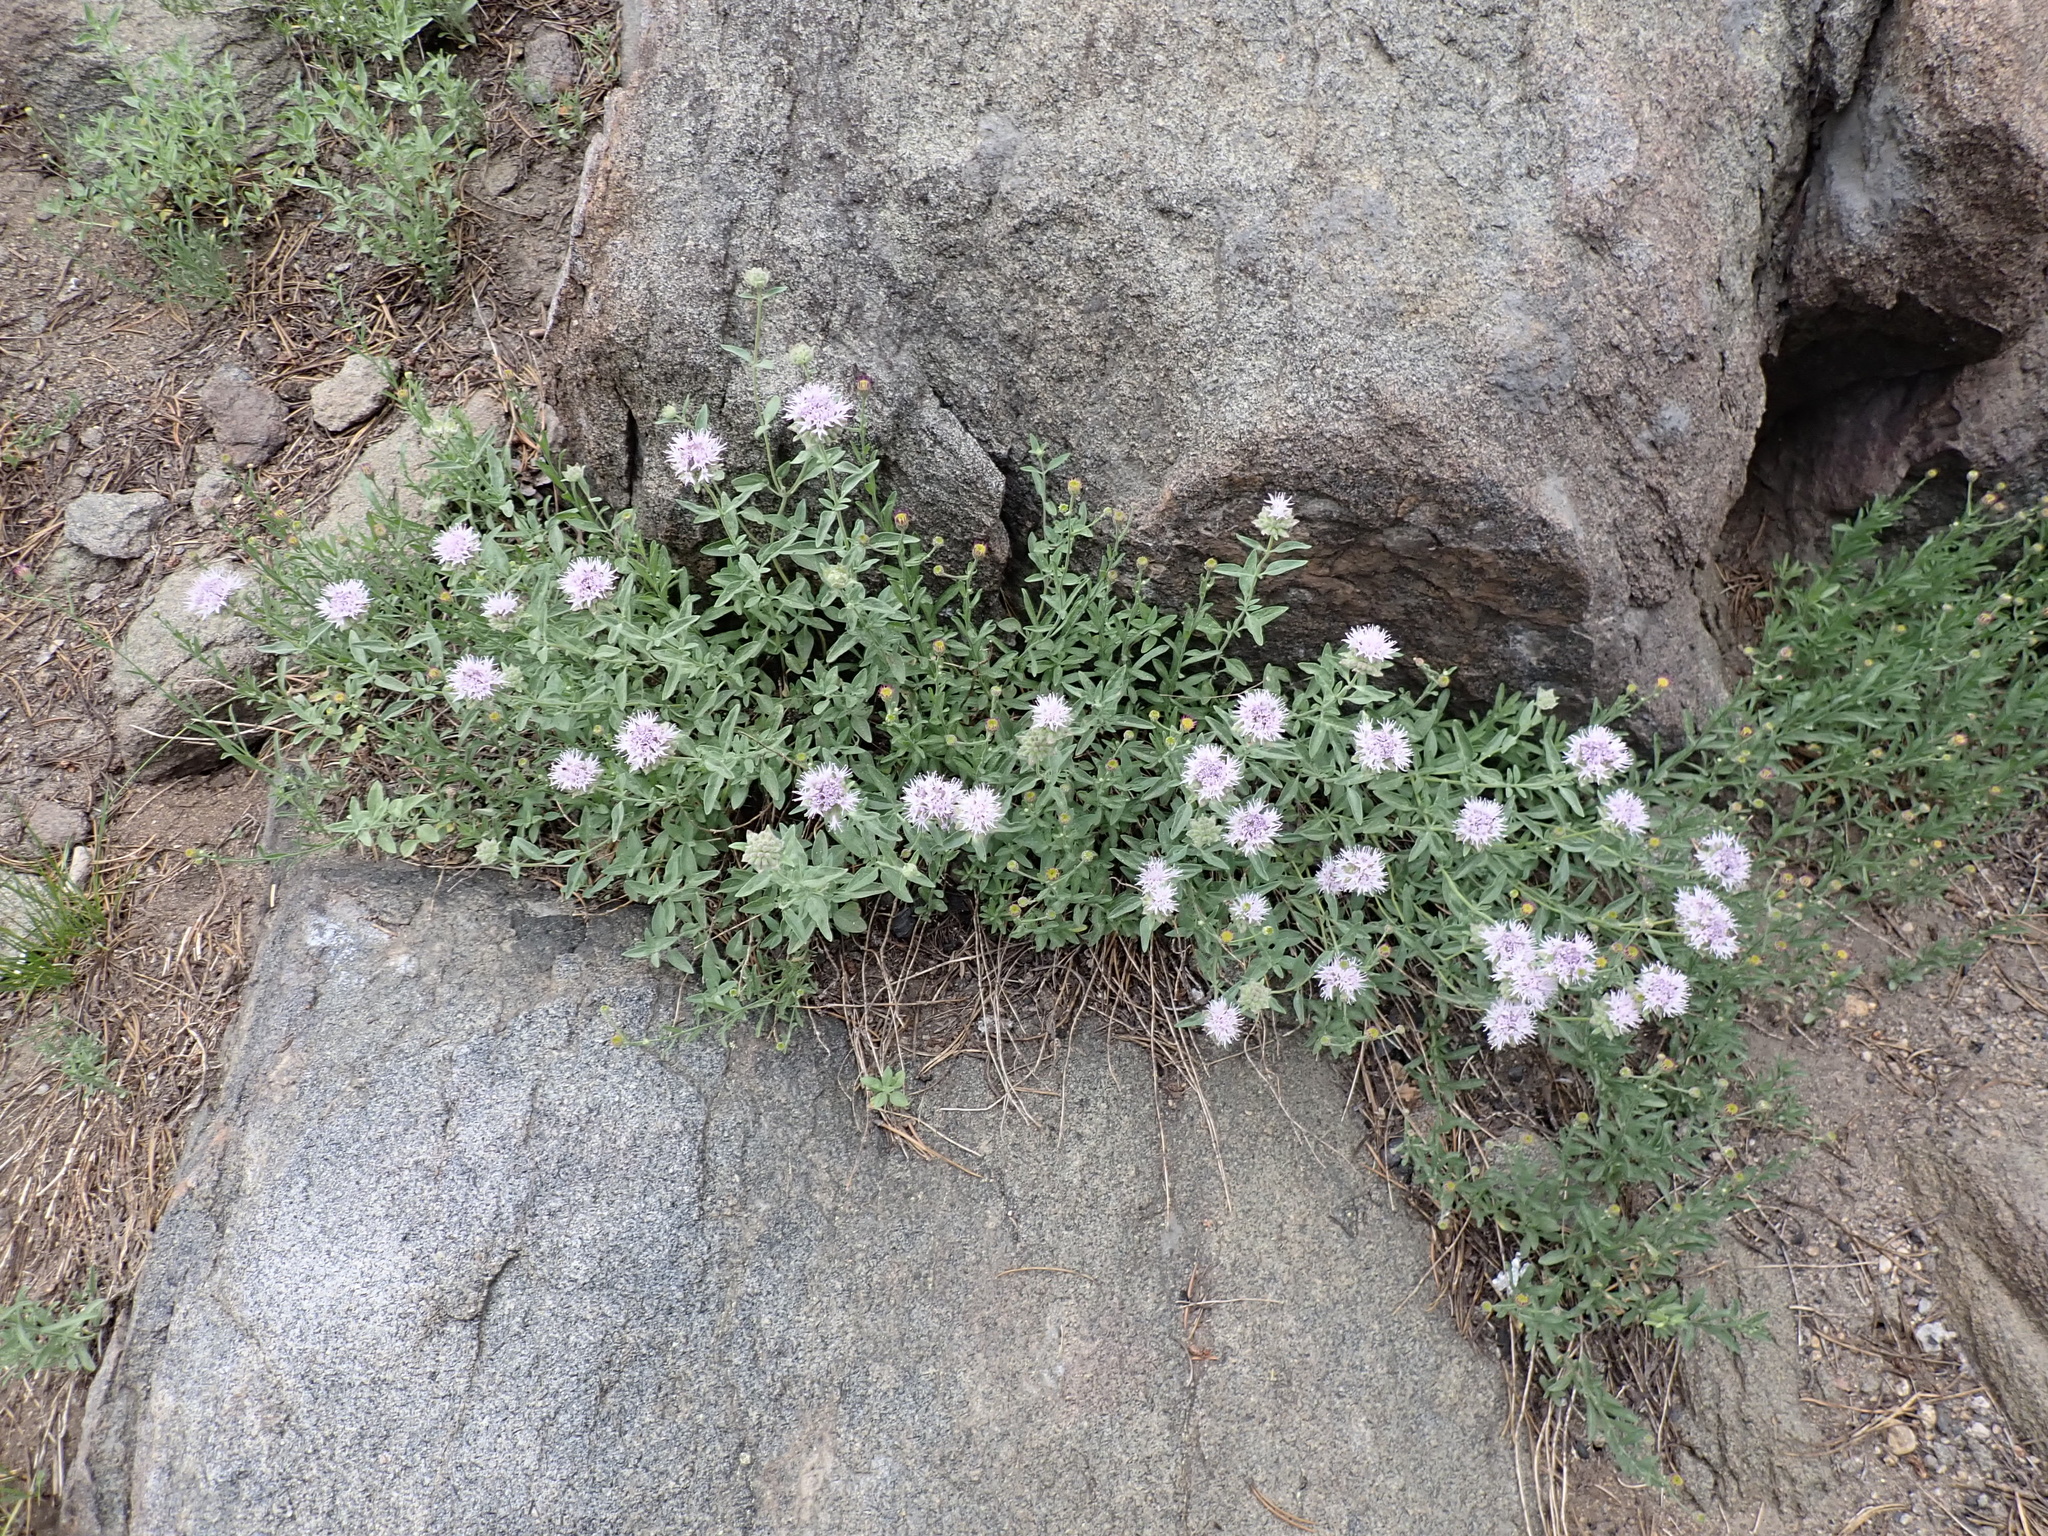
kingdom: Plantae
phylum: Tracheophyta
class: Magnoliopsida
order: Lamiales
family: Lamiaceae
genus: Monardella
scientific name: Monardella odoratissima
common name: Pacific monardella
